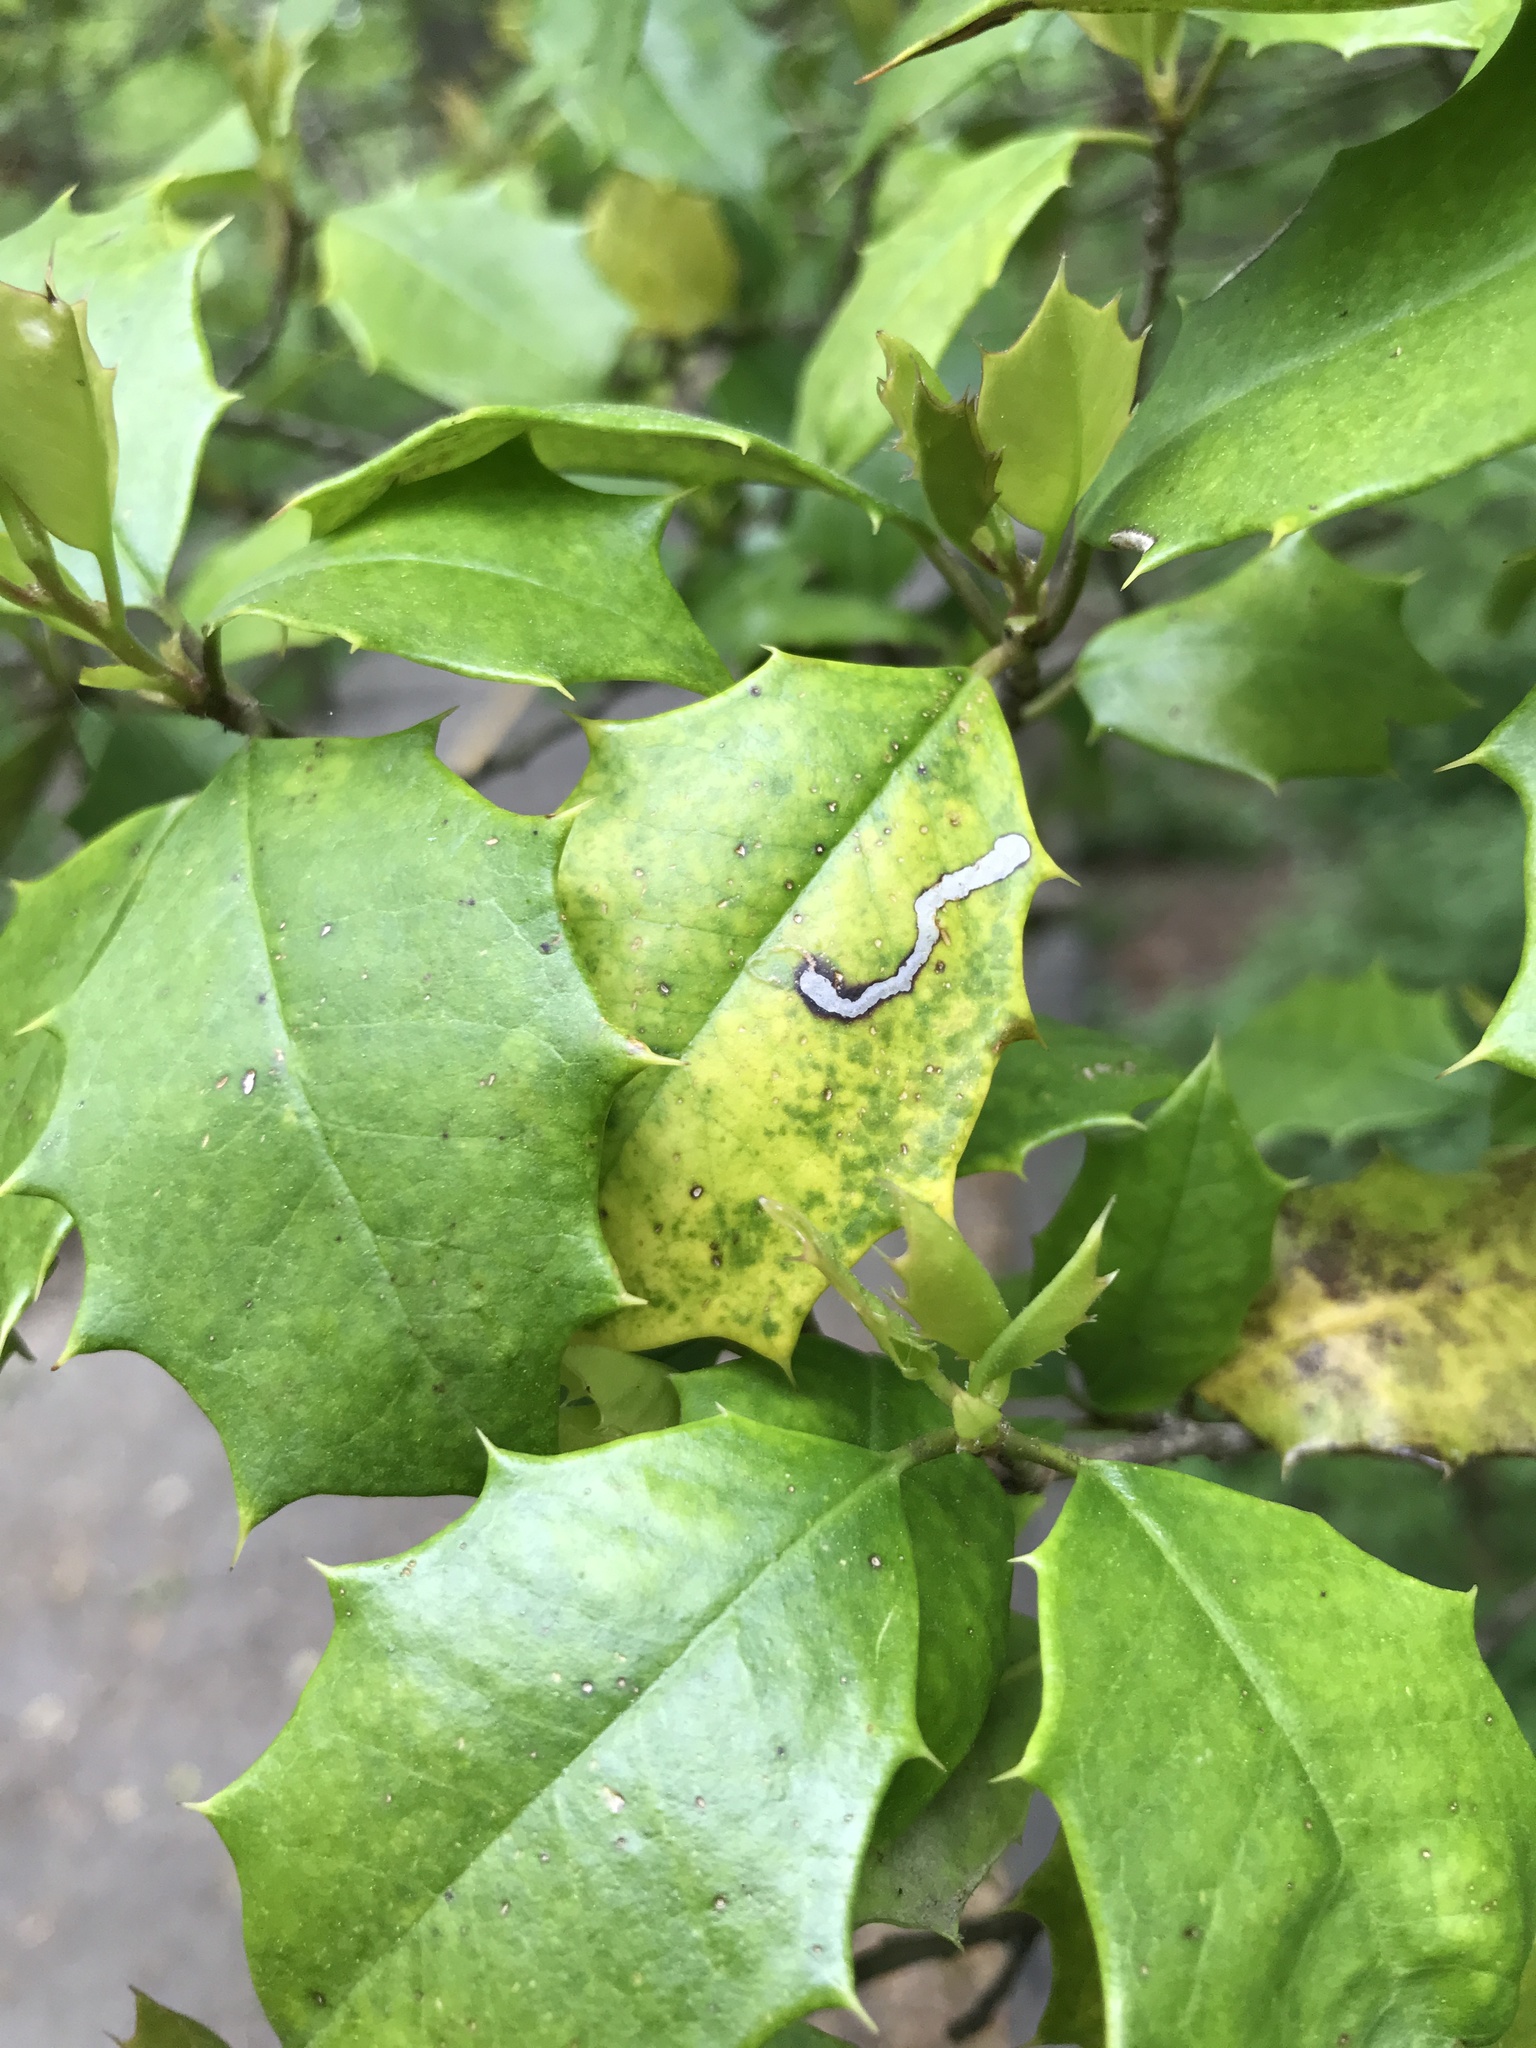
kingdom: Animalia
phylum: Arthropoda
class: Insecta
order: Diptera
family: Agromyzidae
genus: Phytomyza
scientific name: Phytomyza ilicicola
